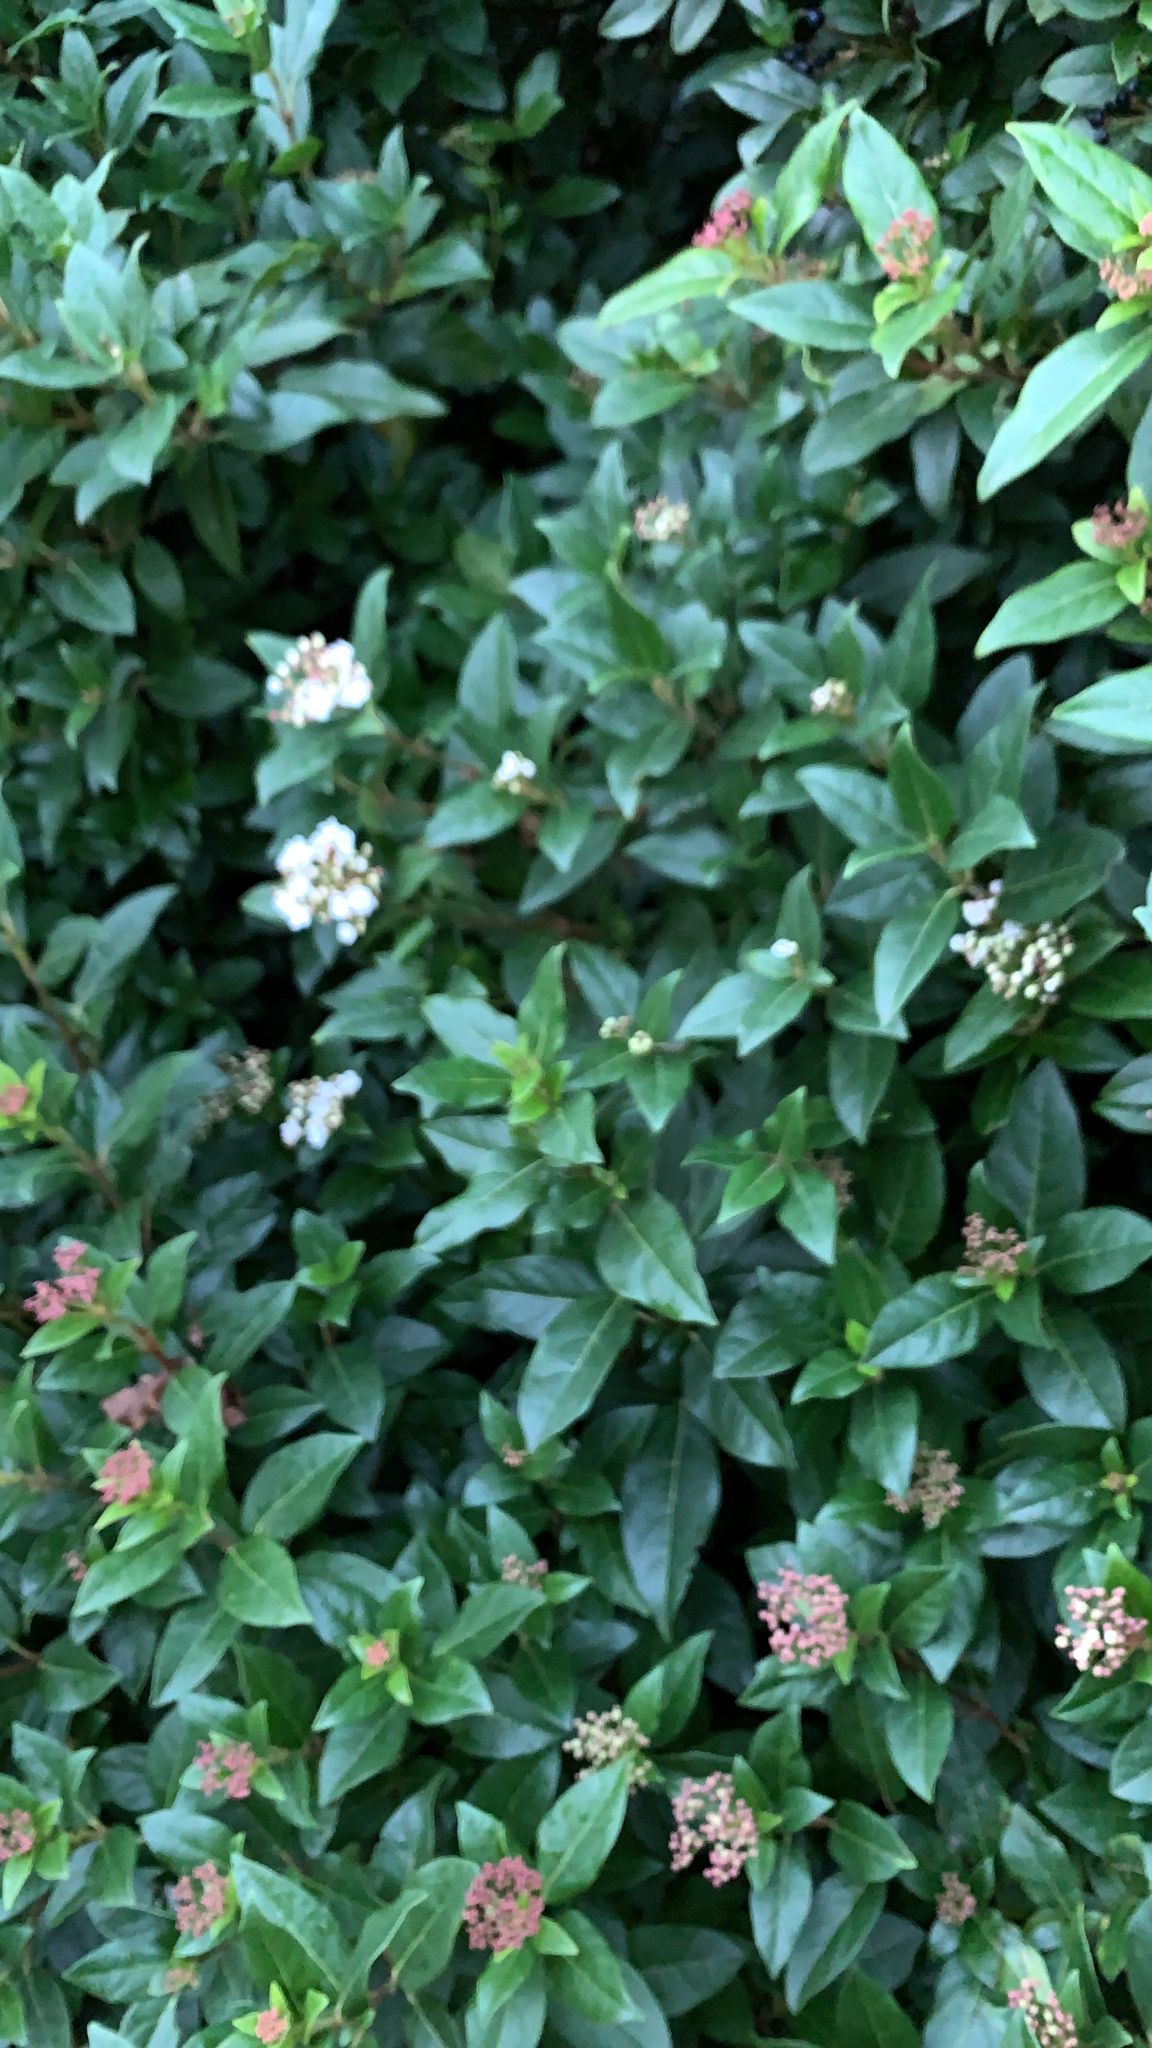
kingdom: Plantae
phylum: Tracheophyta
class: Magnoliopsida
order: Dipsacales
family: Viburnaceae
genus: Viburnum
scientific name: Viburnum tinus
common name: Laurustinus
